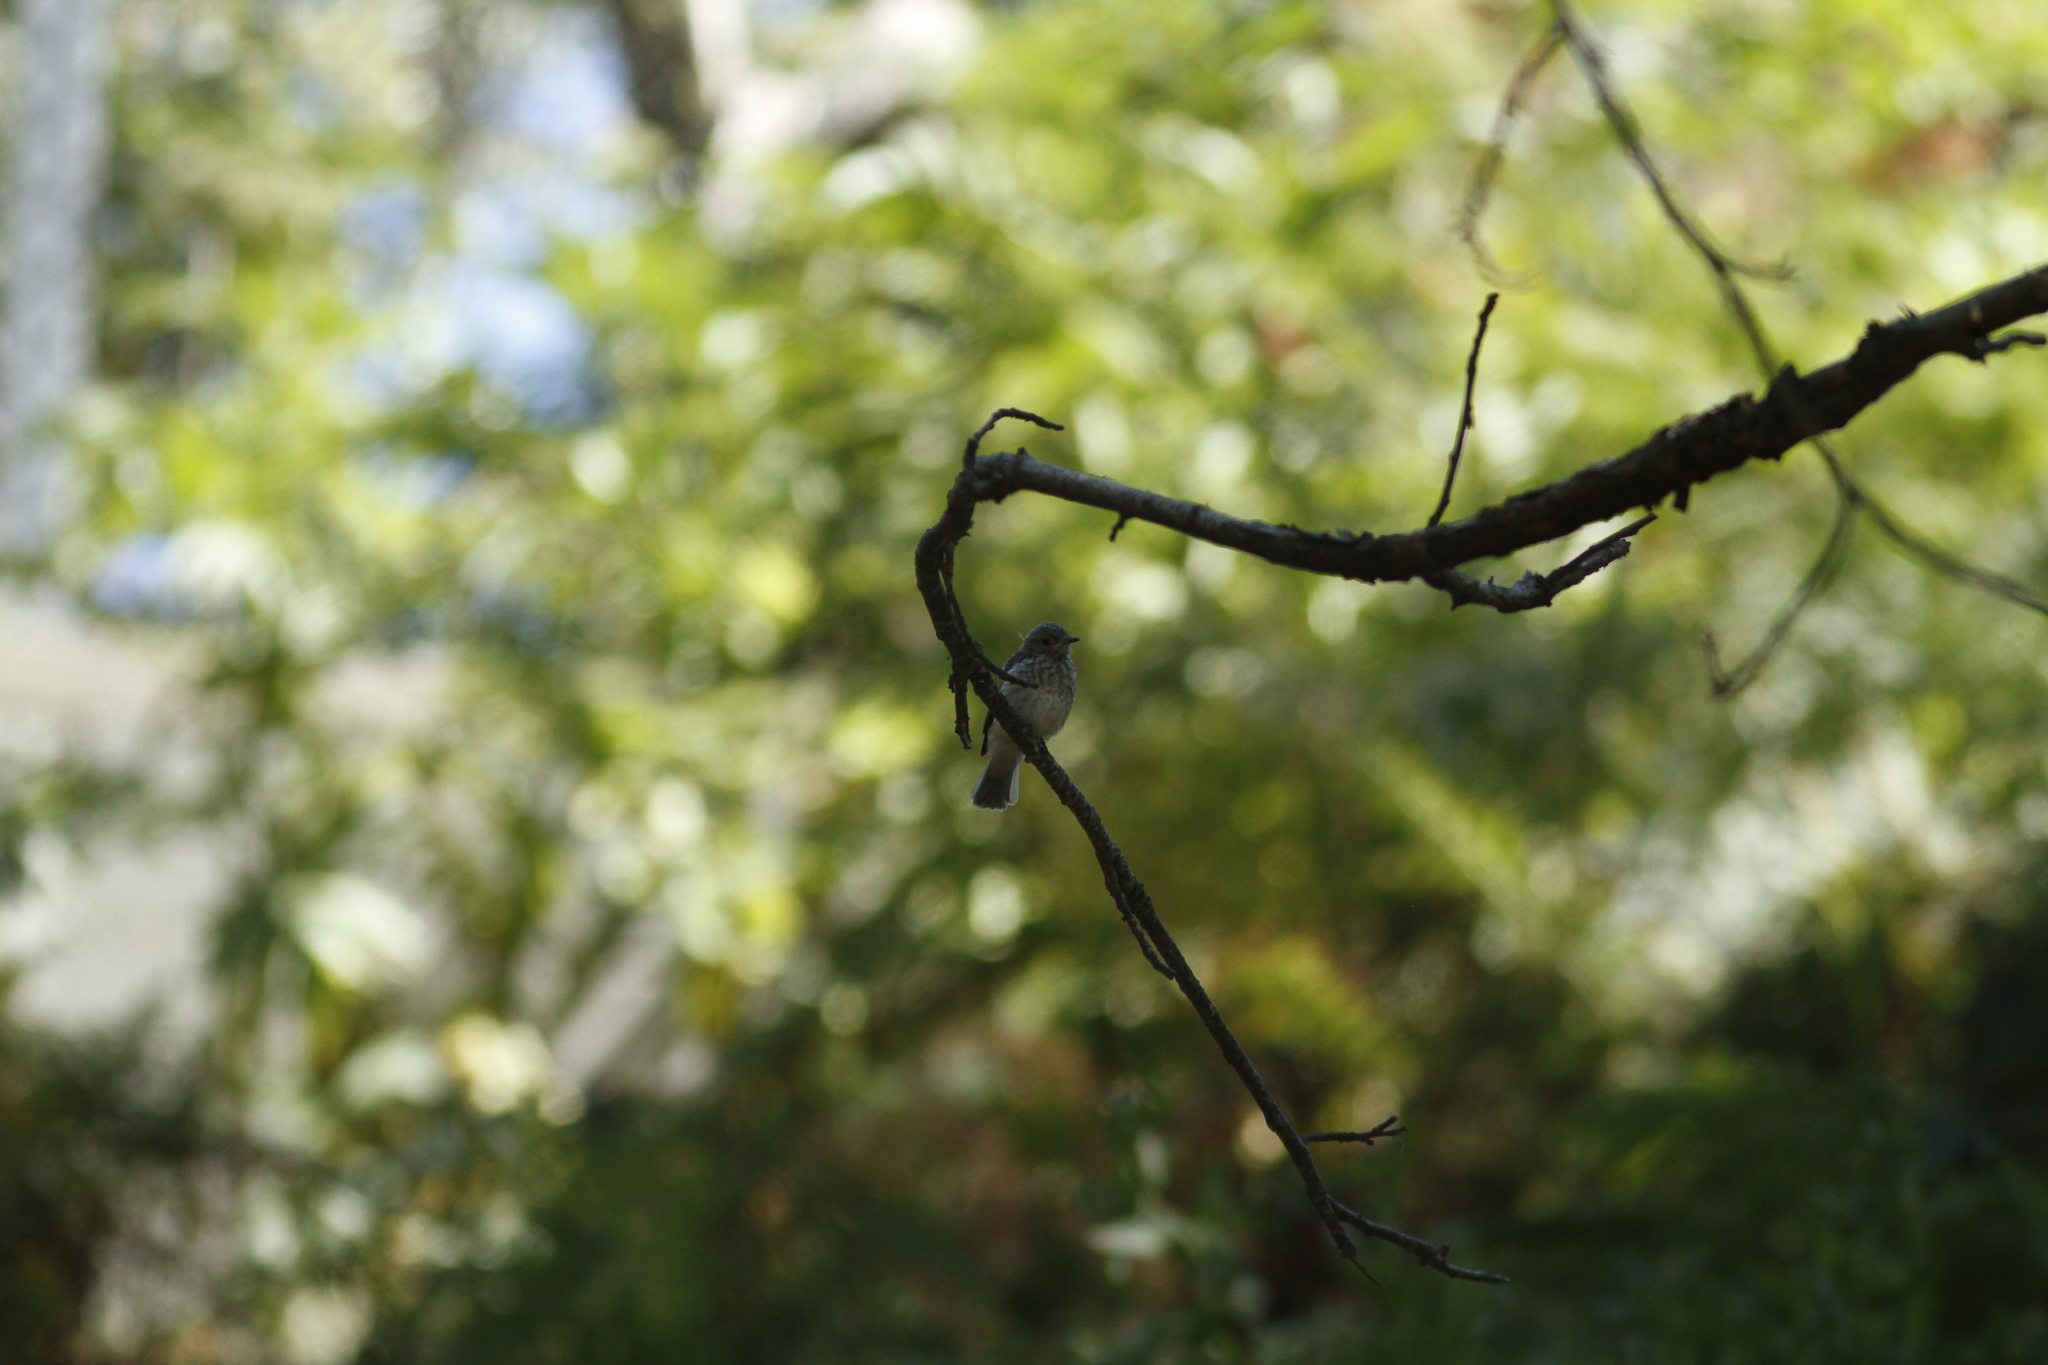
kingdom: Animalia
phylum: Chordata
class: Aves
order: Passeriformes
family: Muscicapidae
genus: Muscicapa
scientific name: Muscicapa striata
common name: Spotted flycatcher
